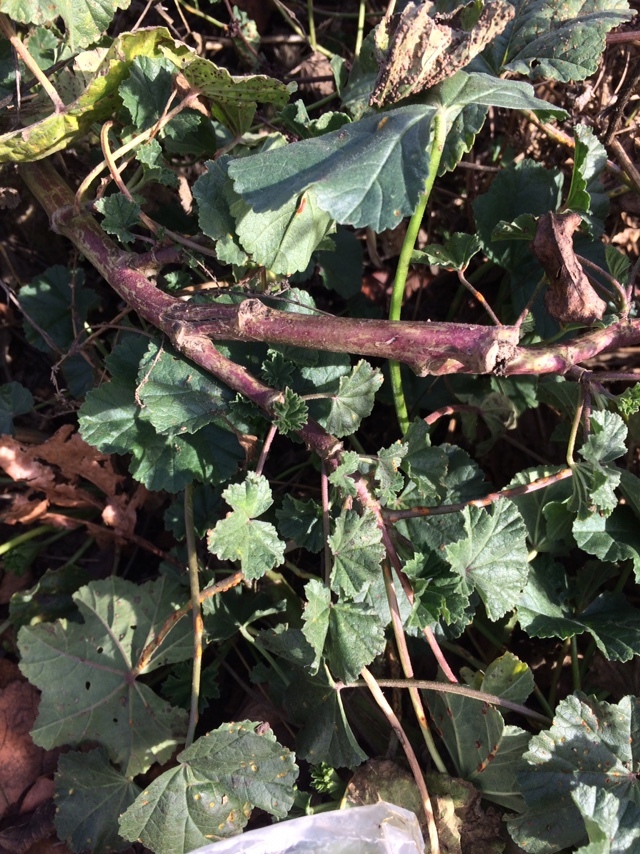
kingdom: Plantae
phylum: Tracheophyta
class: Magnoliopsida
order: Malvales
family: Malvaceae
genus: Malva
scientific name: Malva
